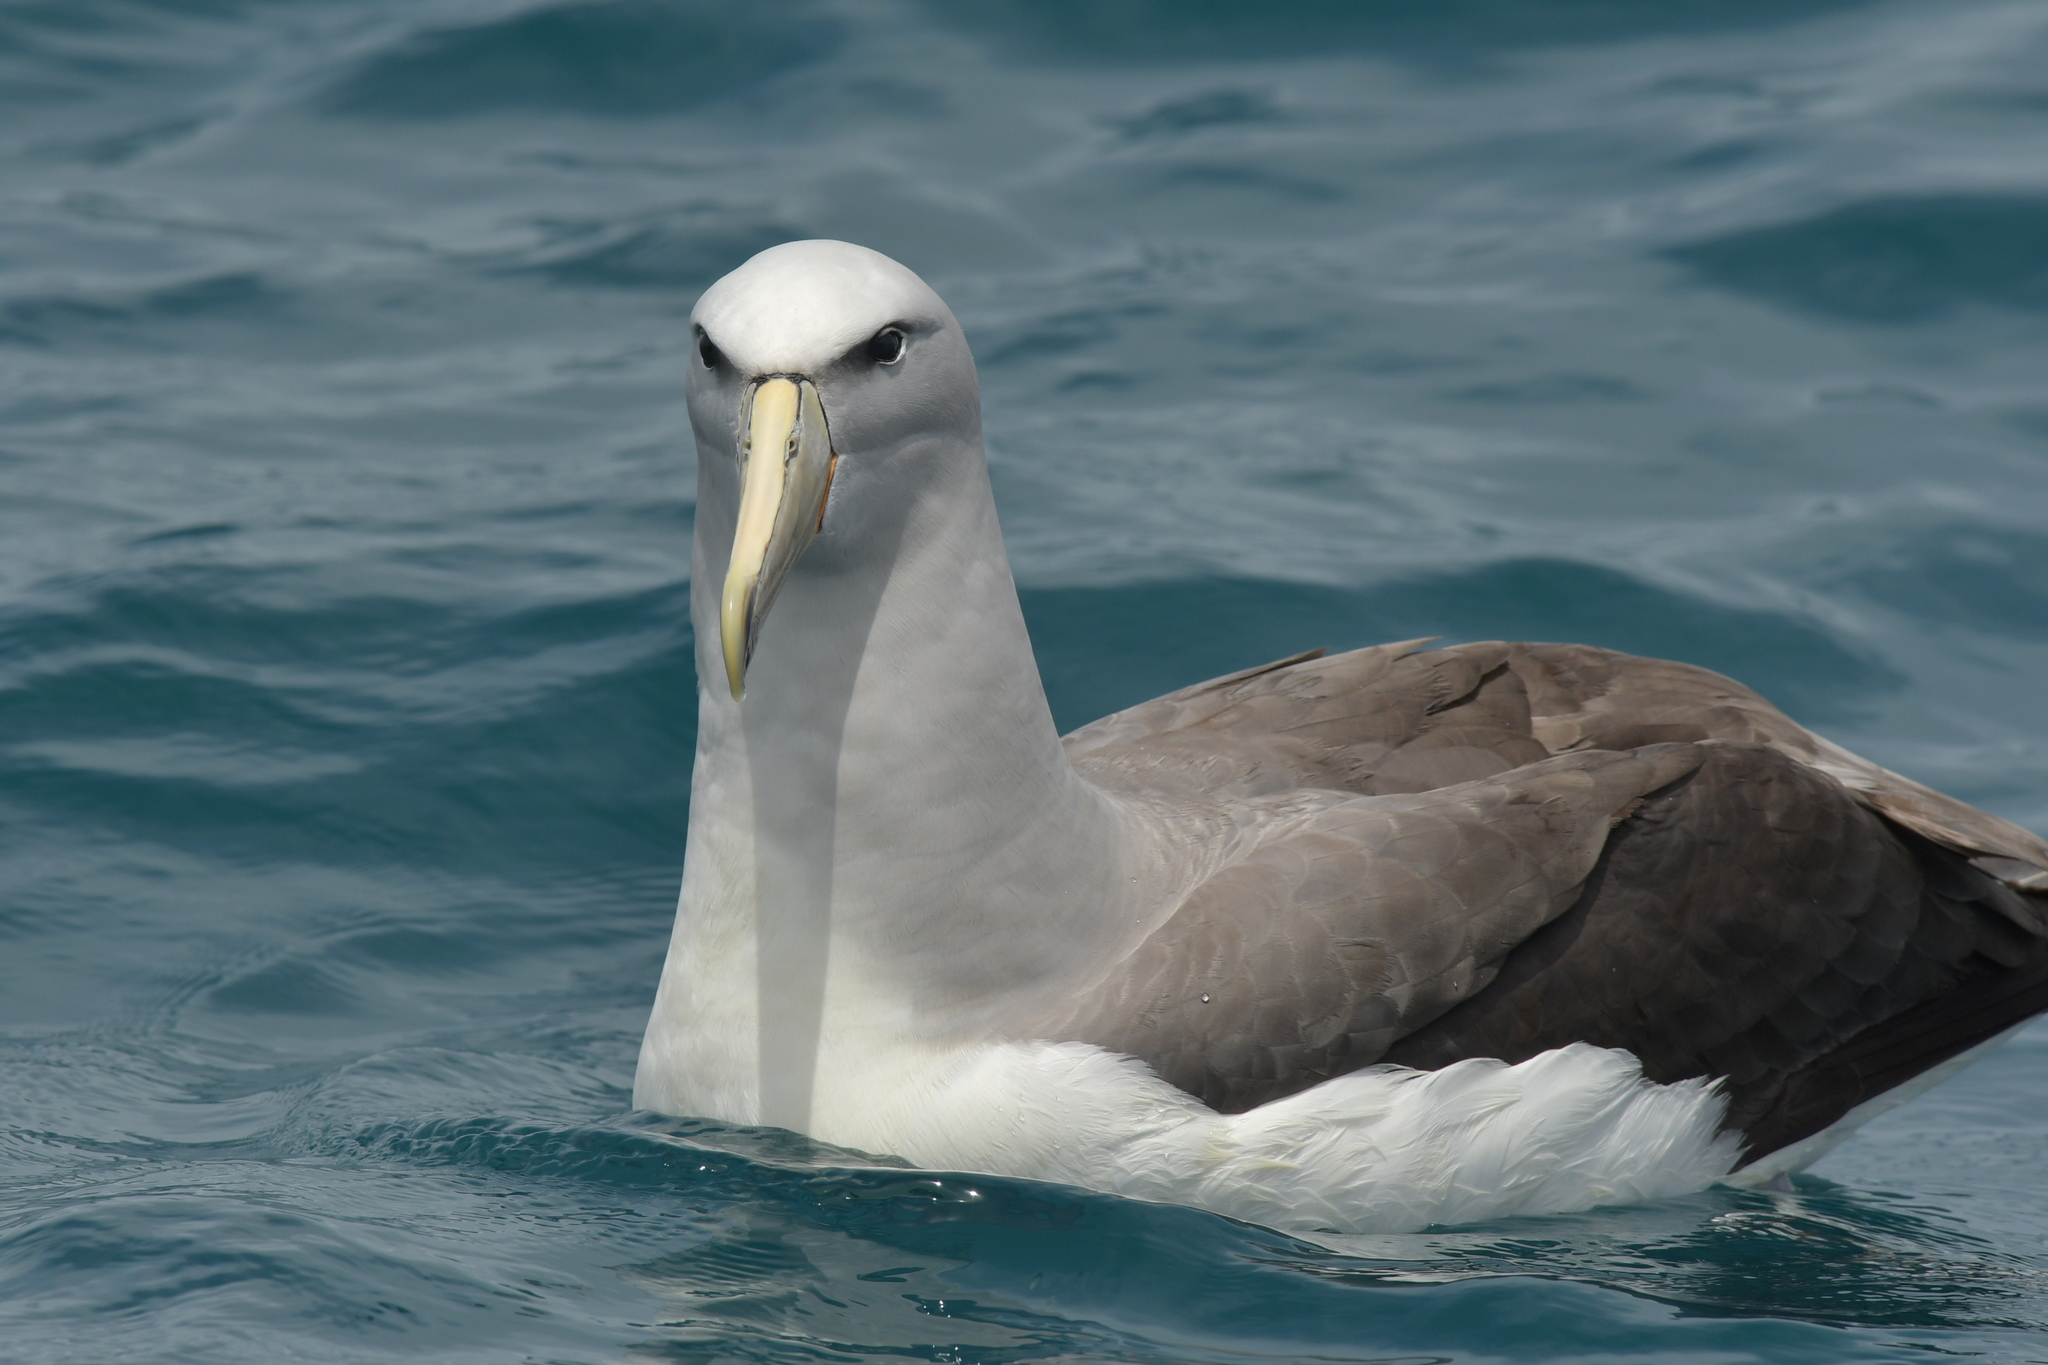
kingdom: Animalia
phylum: Chordata
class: Aves
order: Procellariiformes
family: Diomedeidae
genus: Thalassarche
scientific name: Thalassarche salvini
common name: Salvin's albatross
